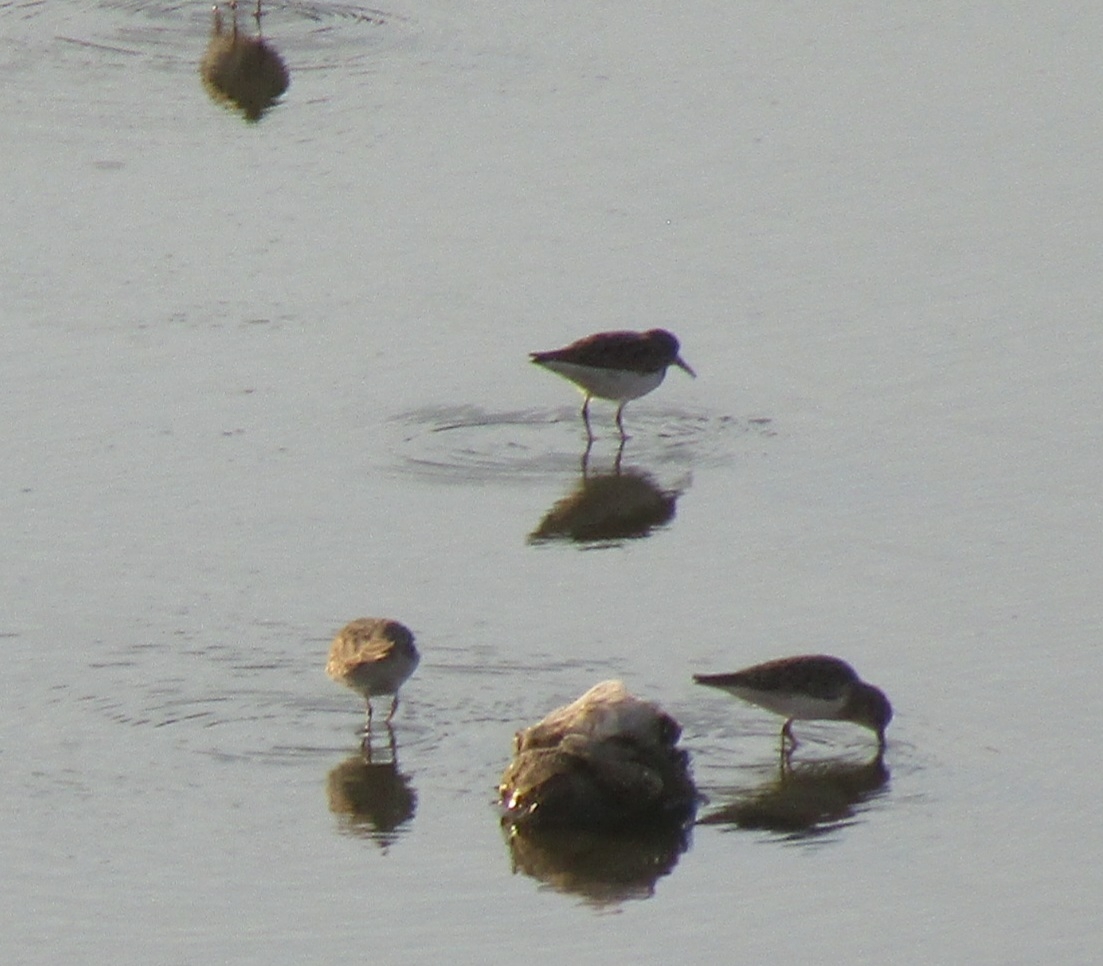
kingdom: Animalia
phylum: Chordata
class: Aves
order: Charadriiformes
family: Scolopacidae
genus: Calidris
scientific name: Calidris minutilla
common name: Least sandpiper
